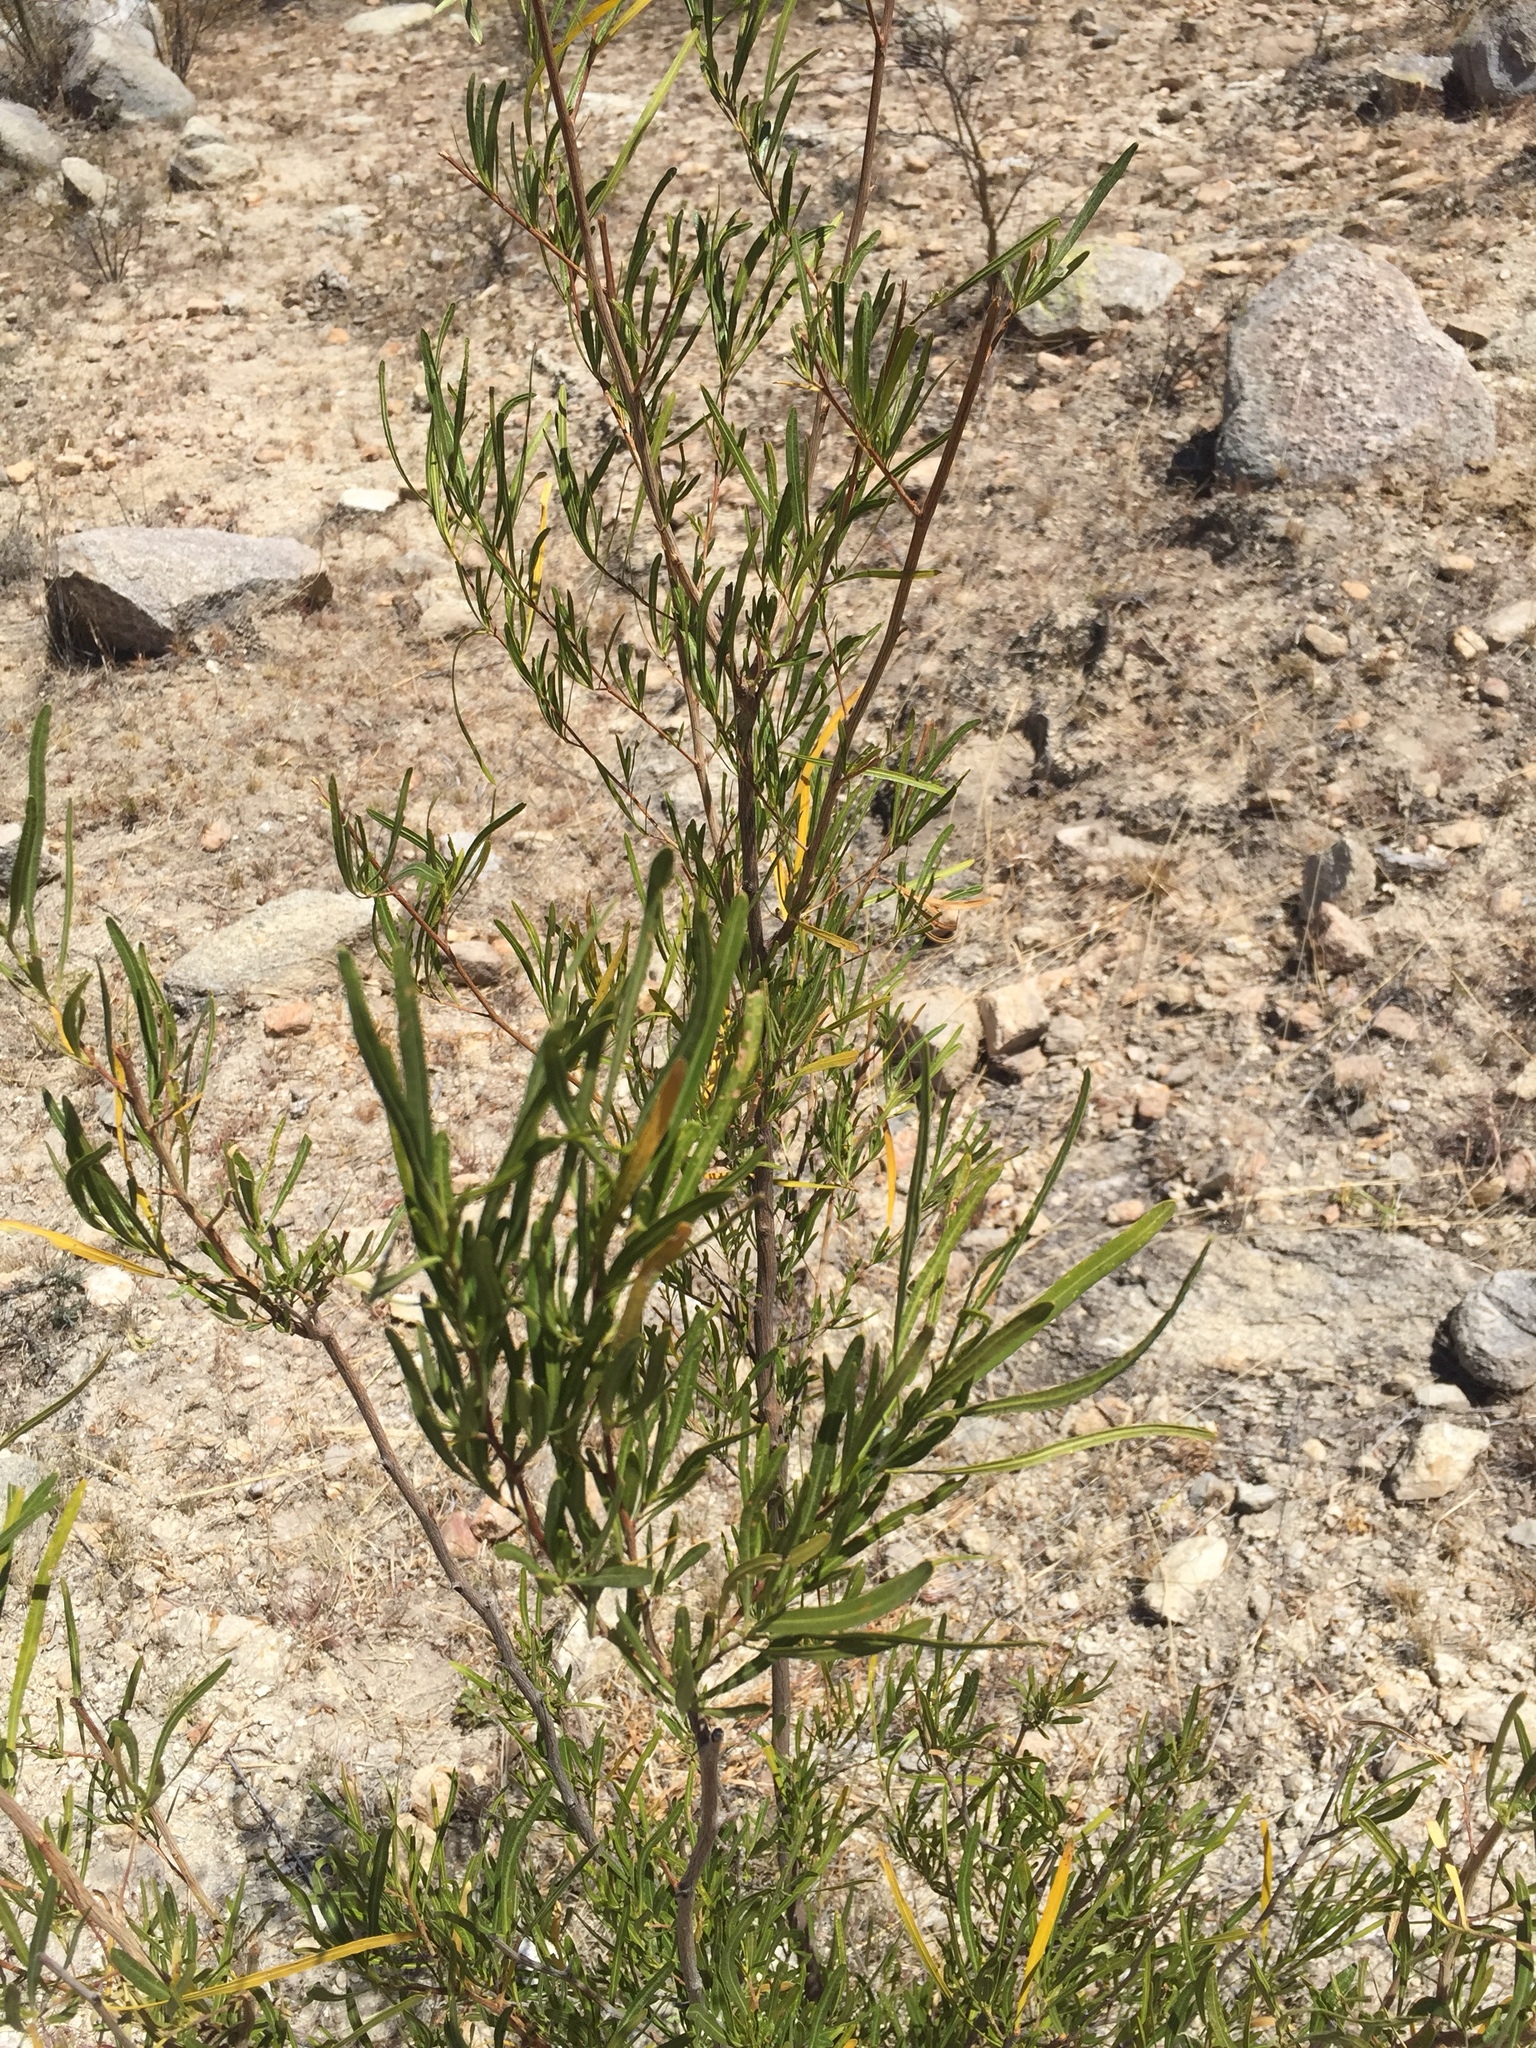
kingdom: Plantae
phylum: Tracheophyta
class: Magnoliopsida
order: Sapindales
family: Sapindaceae
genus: Dodonaea
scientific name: Dodonaea viscosa
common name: Hopbush
